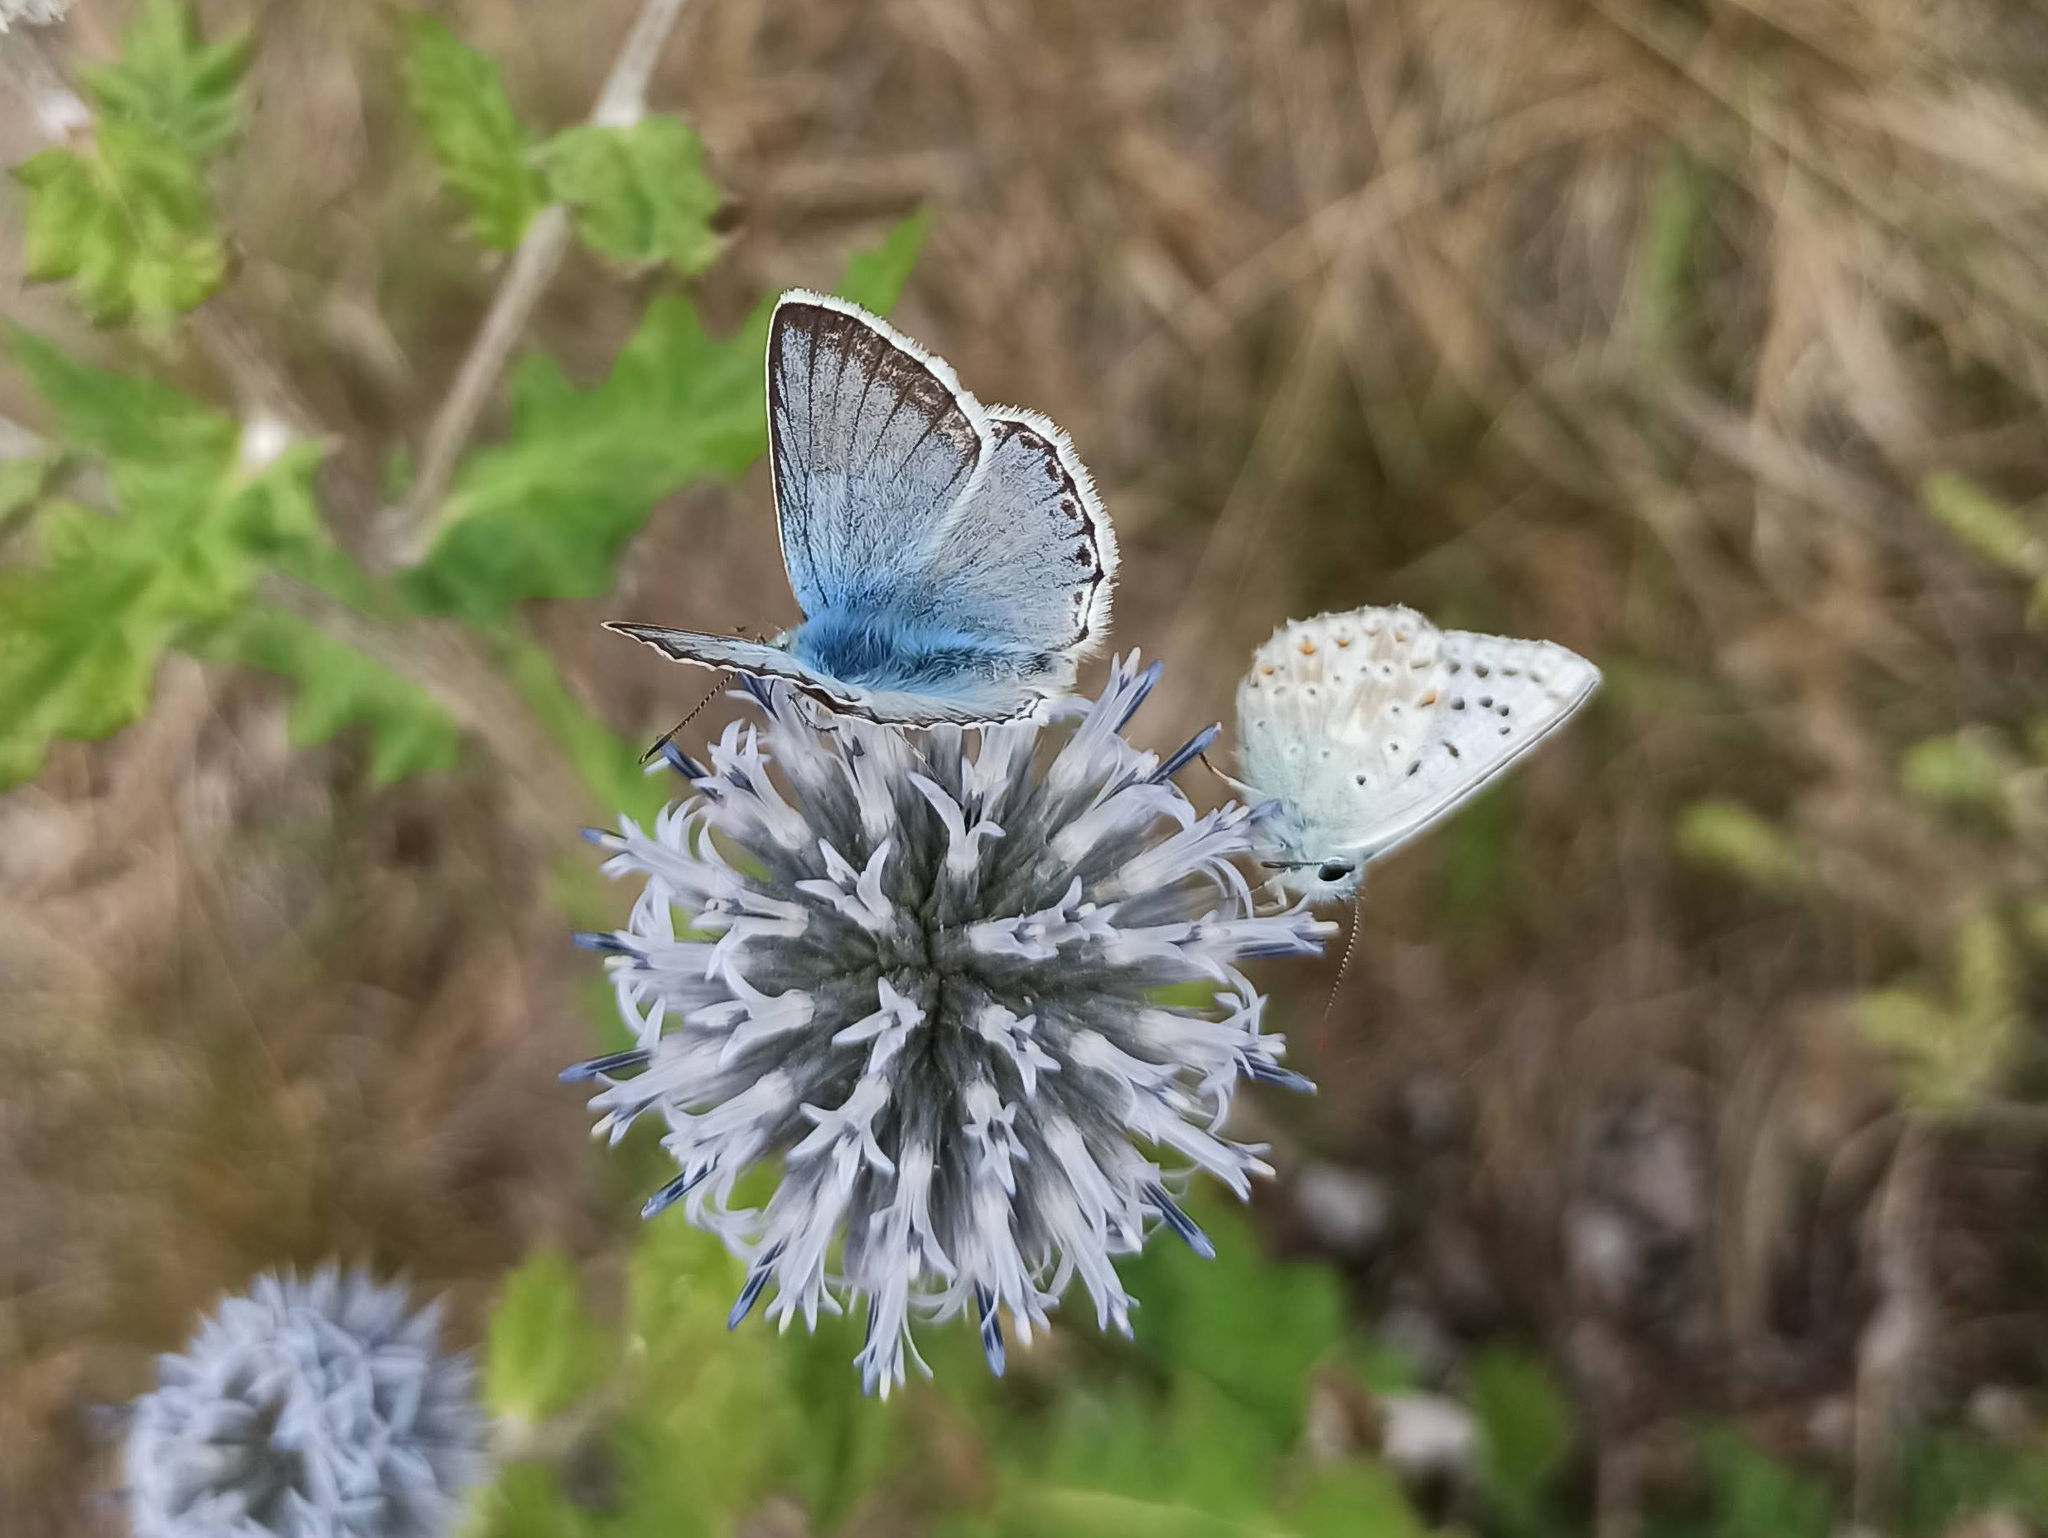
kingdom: Animalia
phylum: Arthropoda
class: Insecta
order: Lepidoptera
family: Lycaenidae
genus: Lysandra
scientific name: Lysandra coridon
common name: Chalkhill blue
